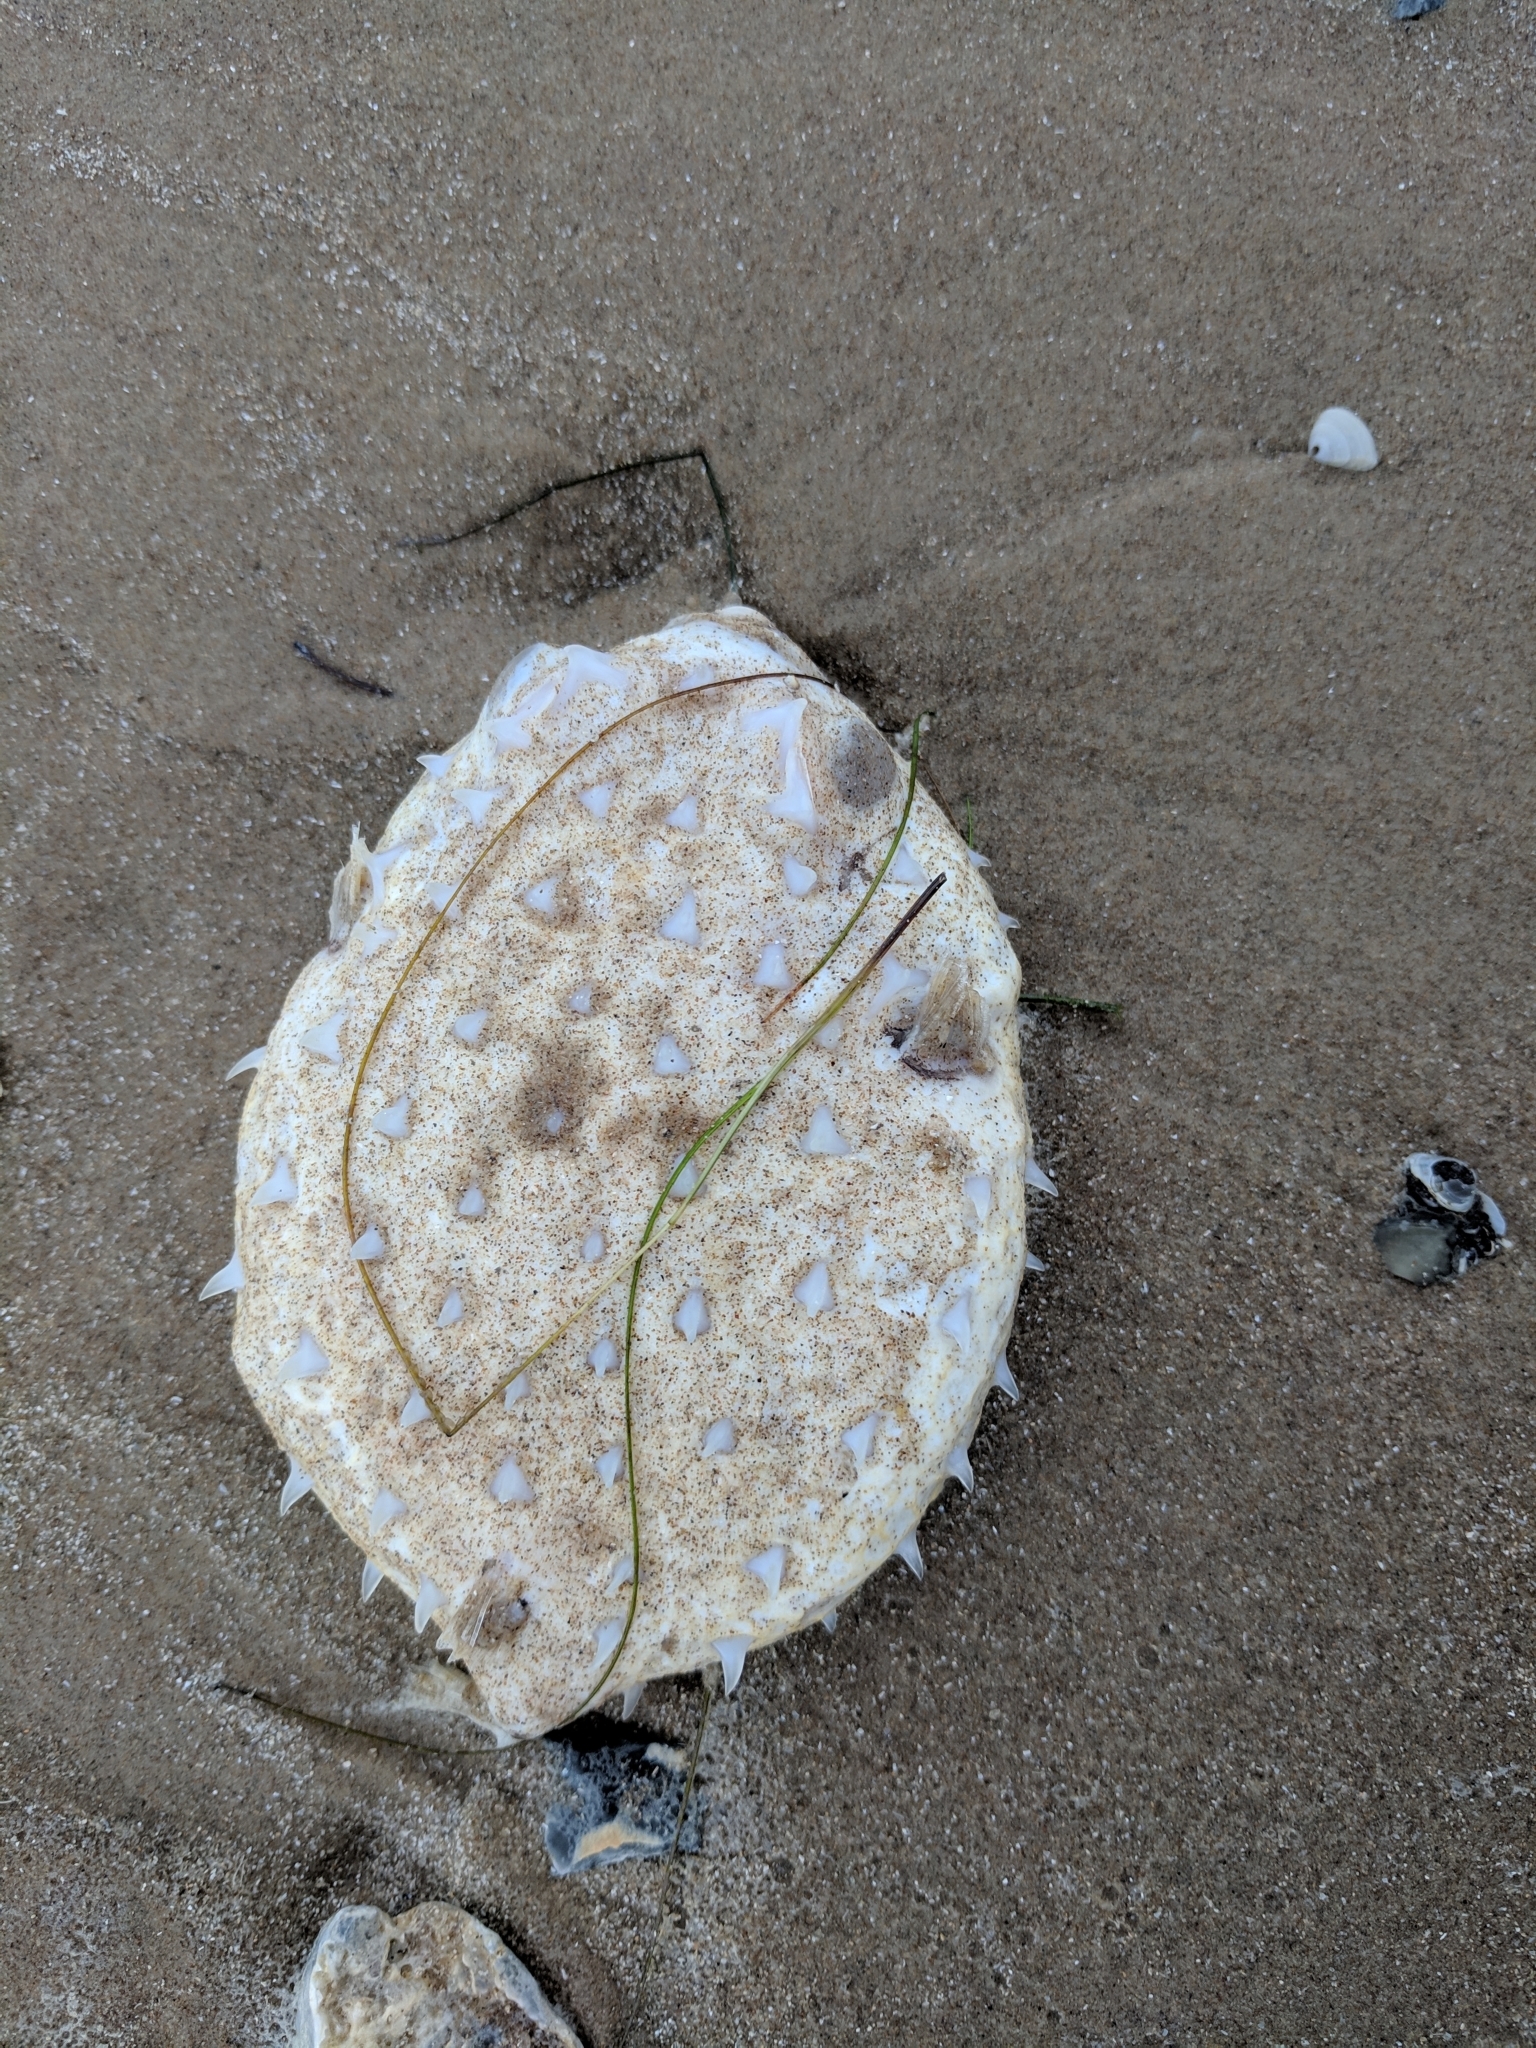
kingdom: Animalia
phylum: Chordata
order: Tetraodontiformes
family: Diodontidae
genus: Chilomycterus
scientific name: Chilomycterus schoepfii
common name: Striped burrfish
